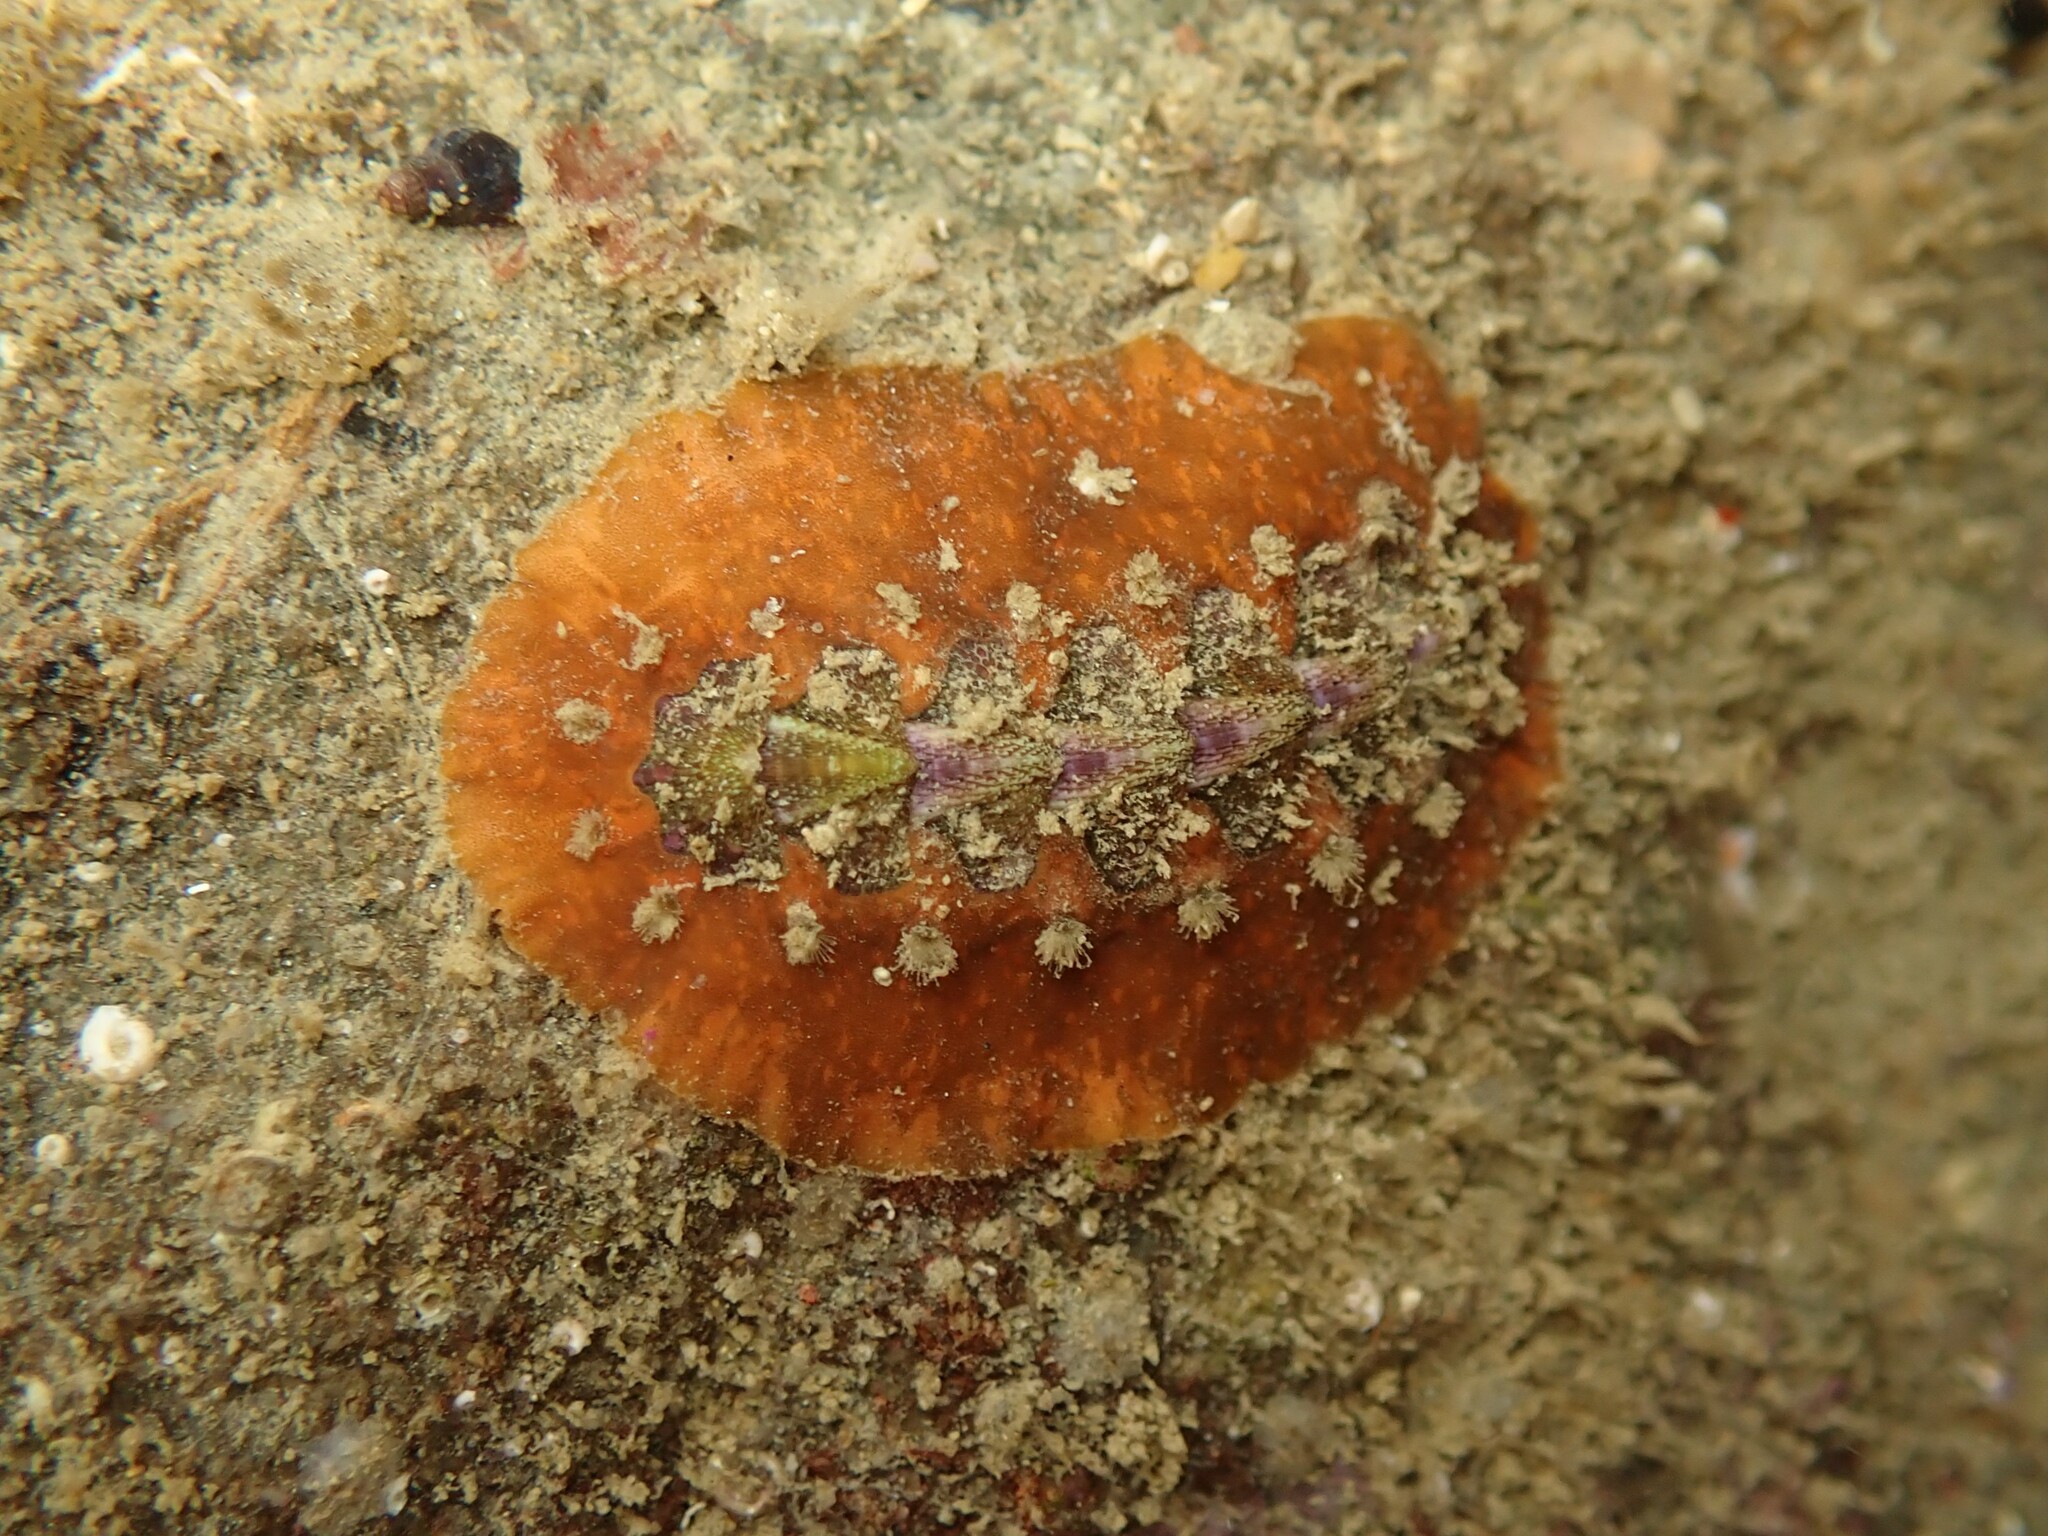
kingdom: Animalia
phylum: Mollusca
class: Polyplacophora
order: Chitonida
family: Acanthochitonidae
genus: Notoplax
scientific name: Notoplax violacea
